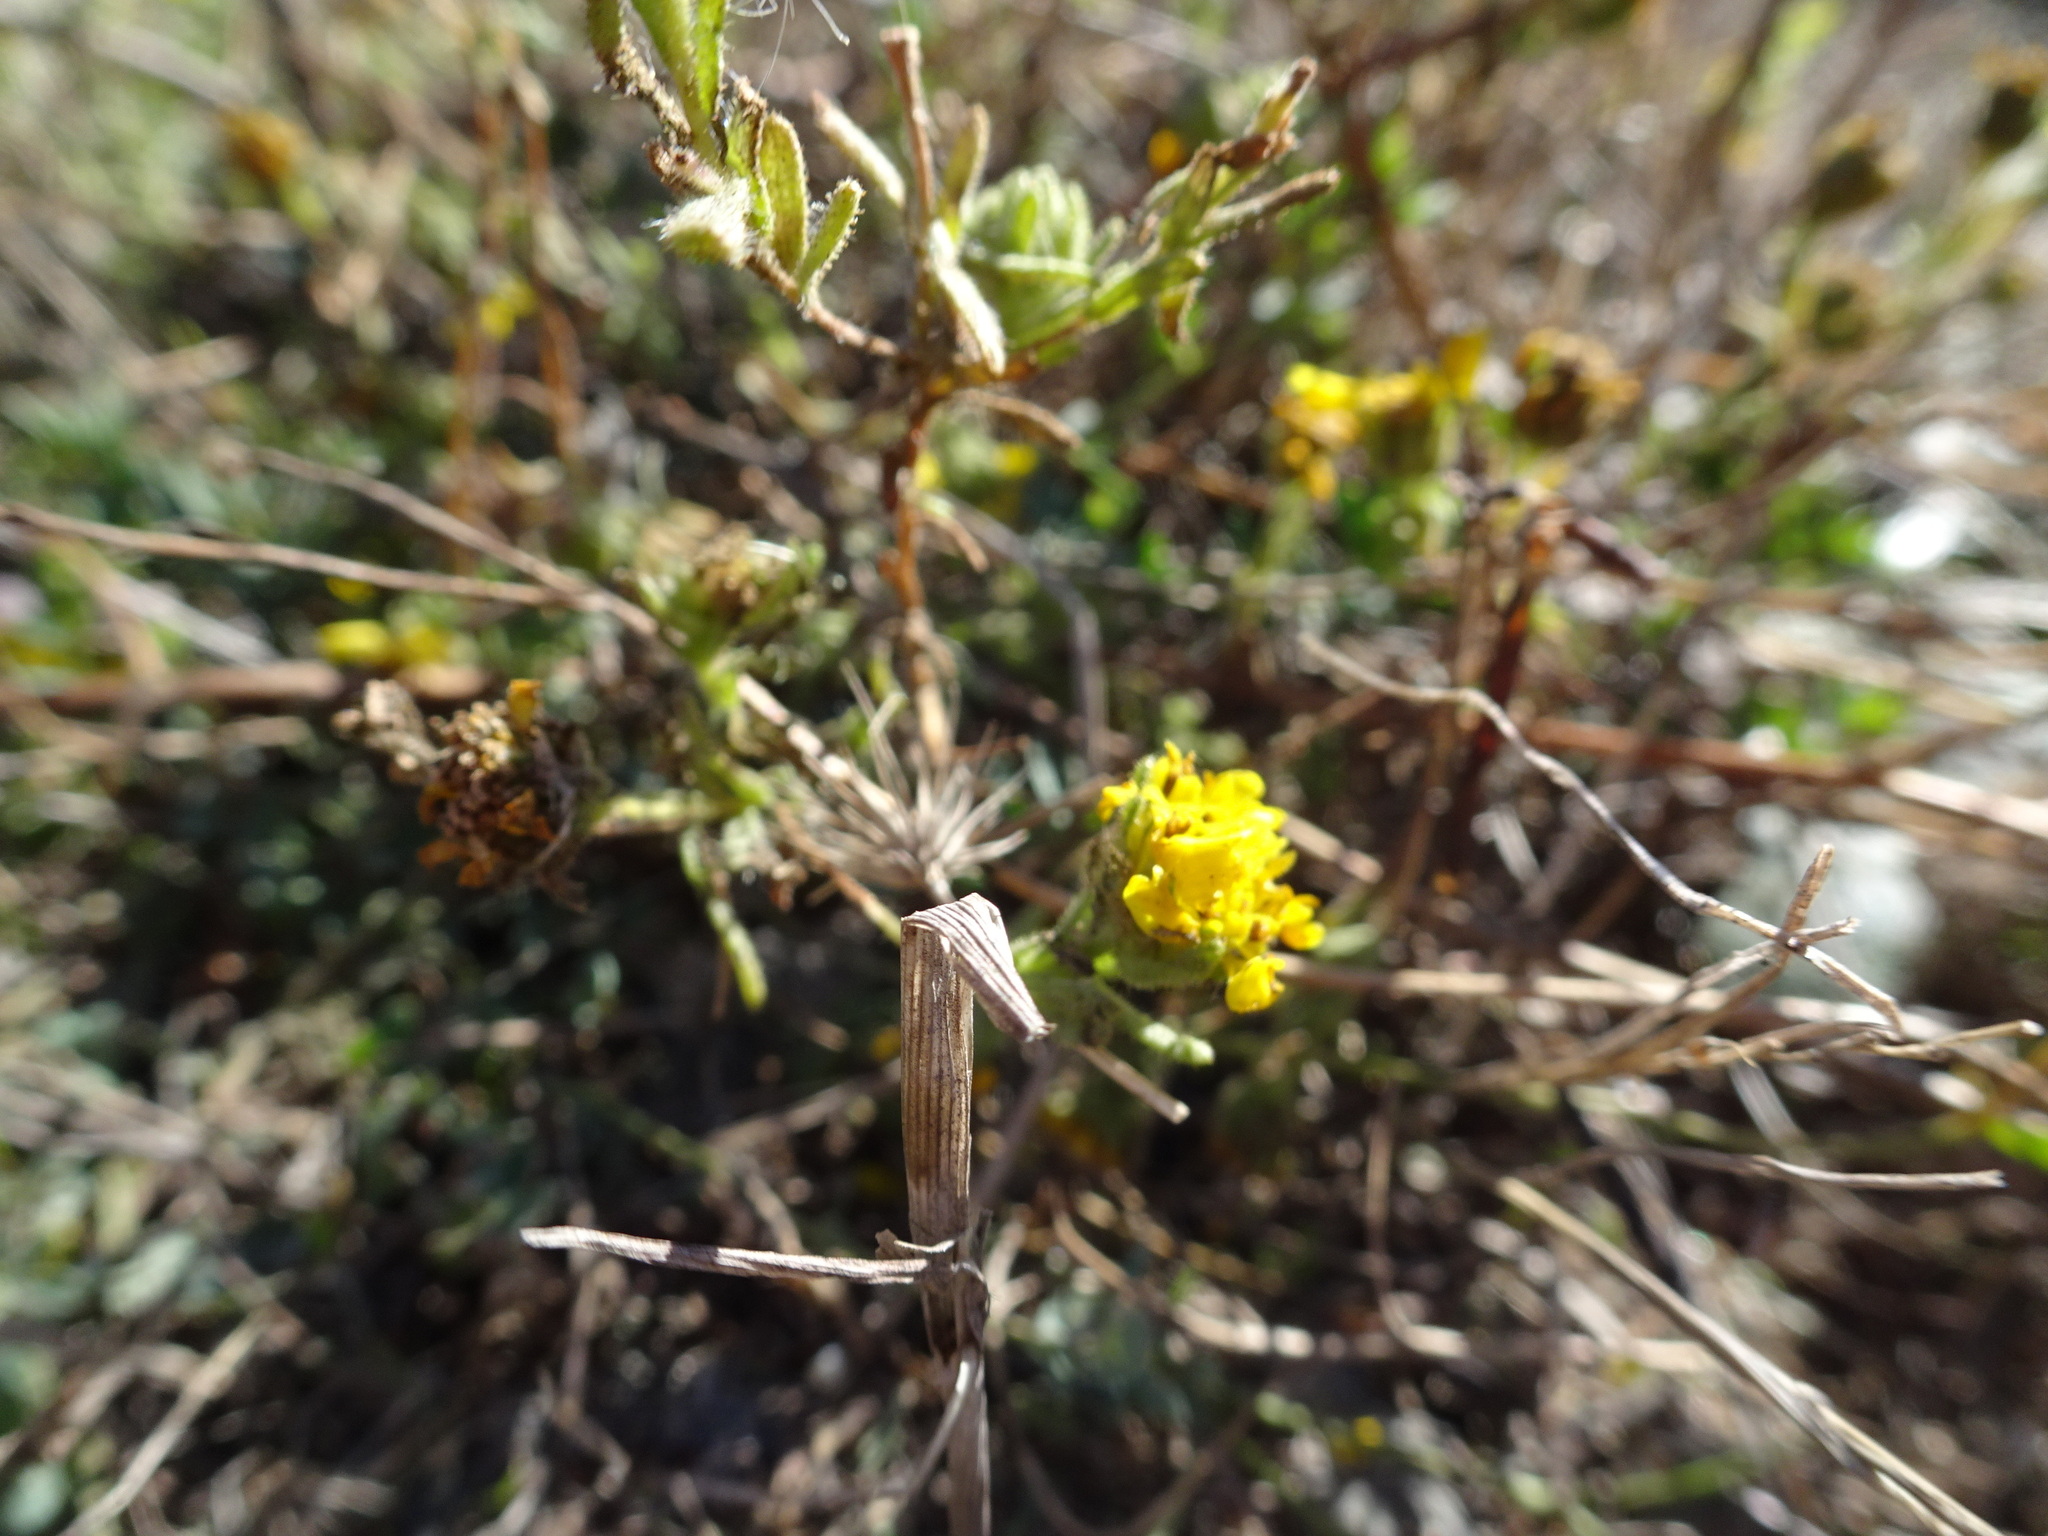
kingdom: Plantae
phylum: Tracheophyta
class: Magnoliopsida
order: Asterales
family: Asteraceae
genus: Deinandra
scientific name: Deinandra corymbosa
